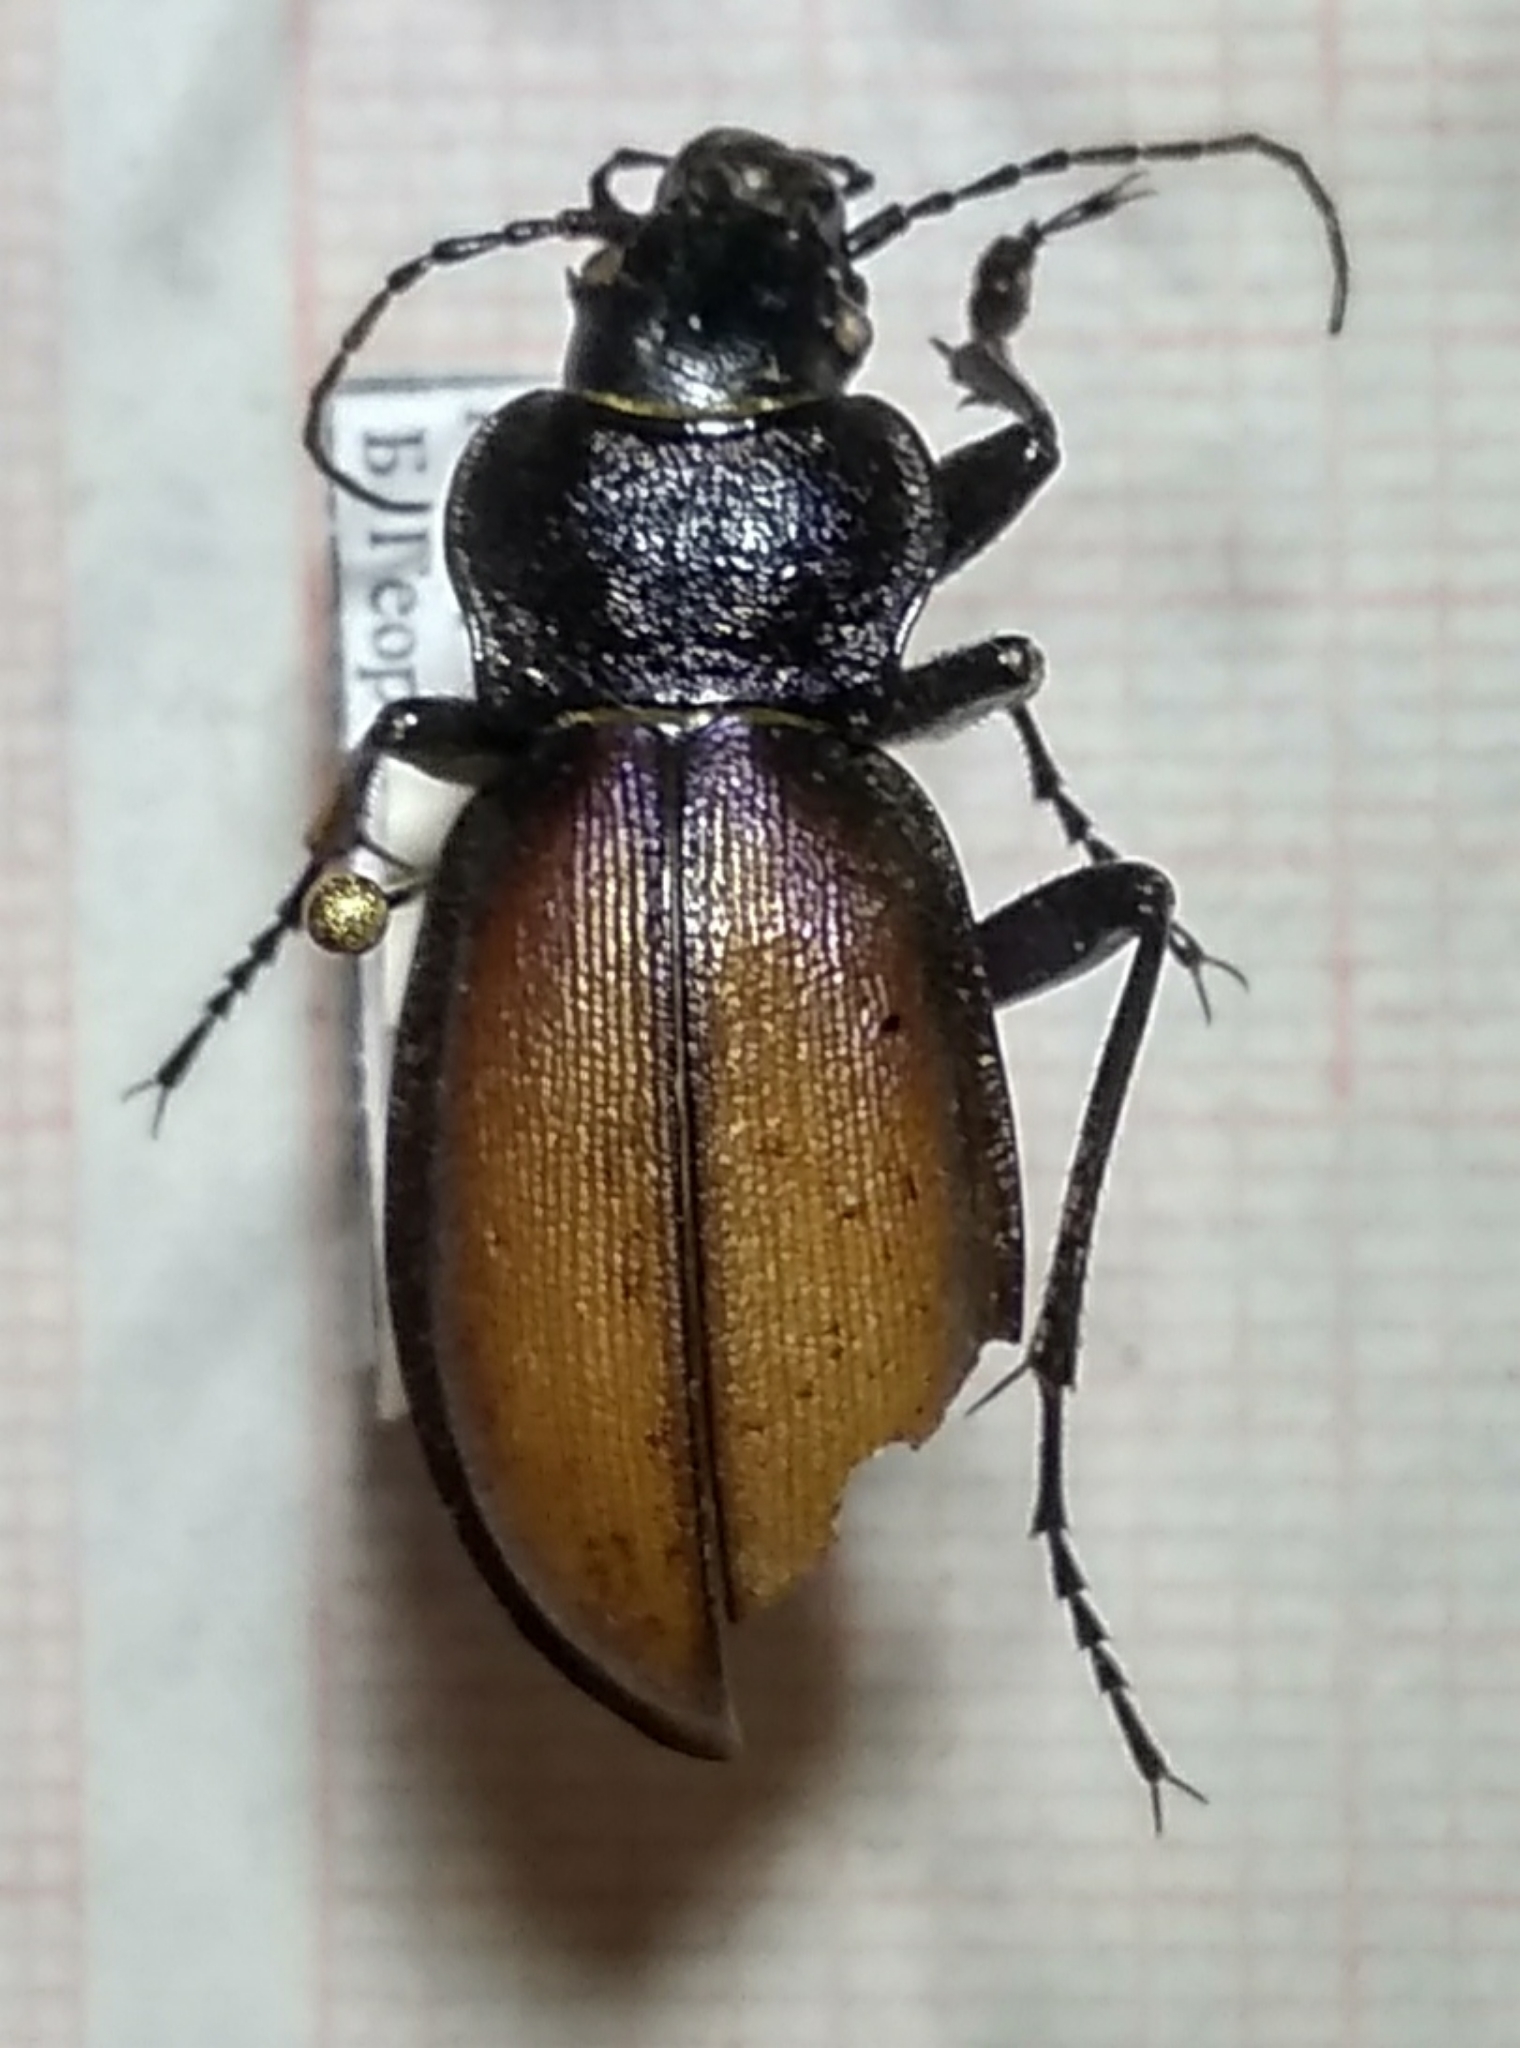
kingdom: Animalia
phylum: Arthropoda
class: Insecta
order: Coleoptera
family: Carabidae
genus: Carabus
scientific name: Carabus schoenherri
